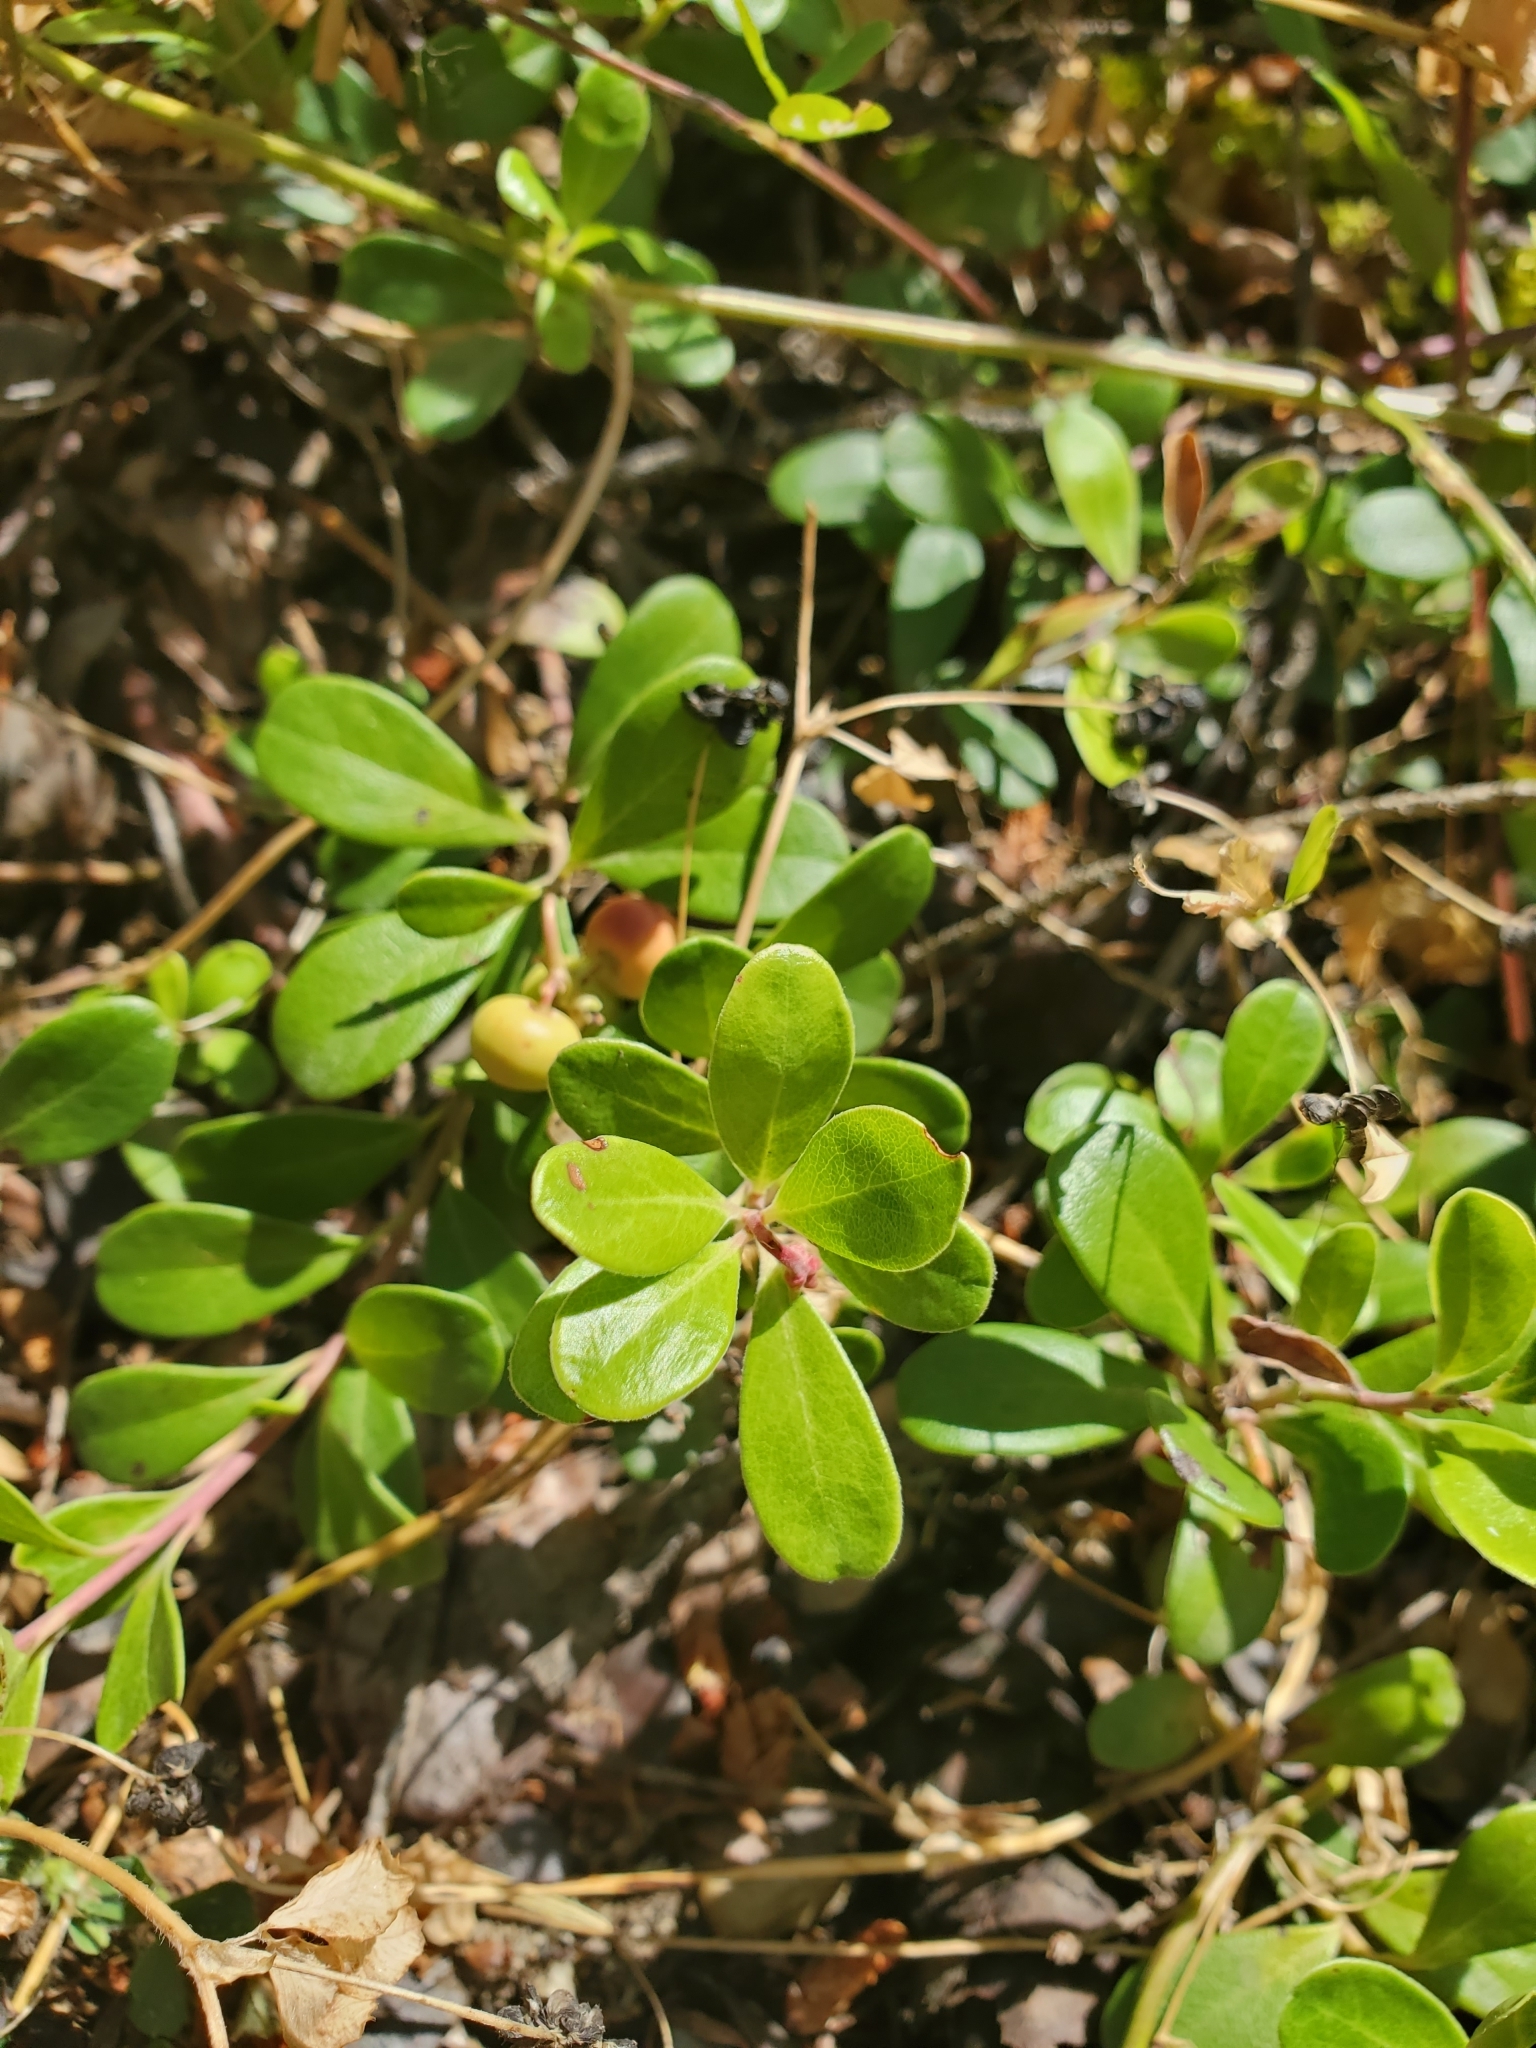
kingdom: Plantae
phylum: Tracheophyta
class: Magnoliopsida
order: Ericales
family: Ericaceae
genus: Arctostaphylos
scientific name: Arctostaphylos uva-ursi
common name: Bearberry
